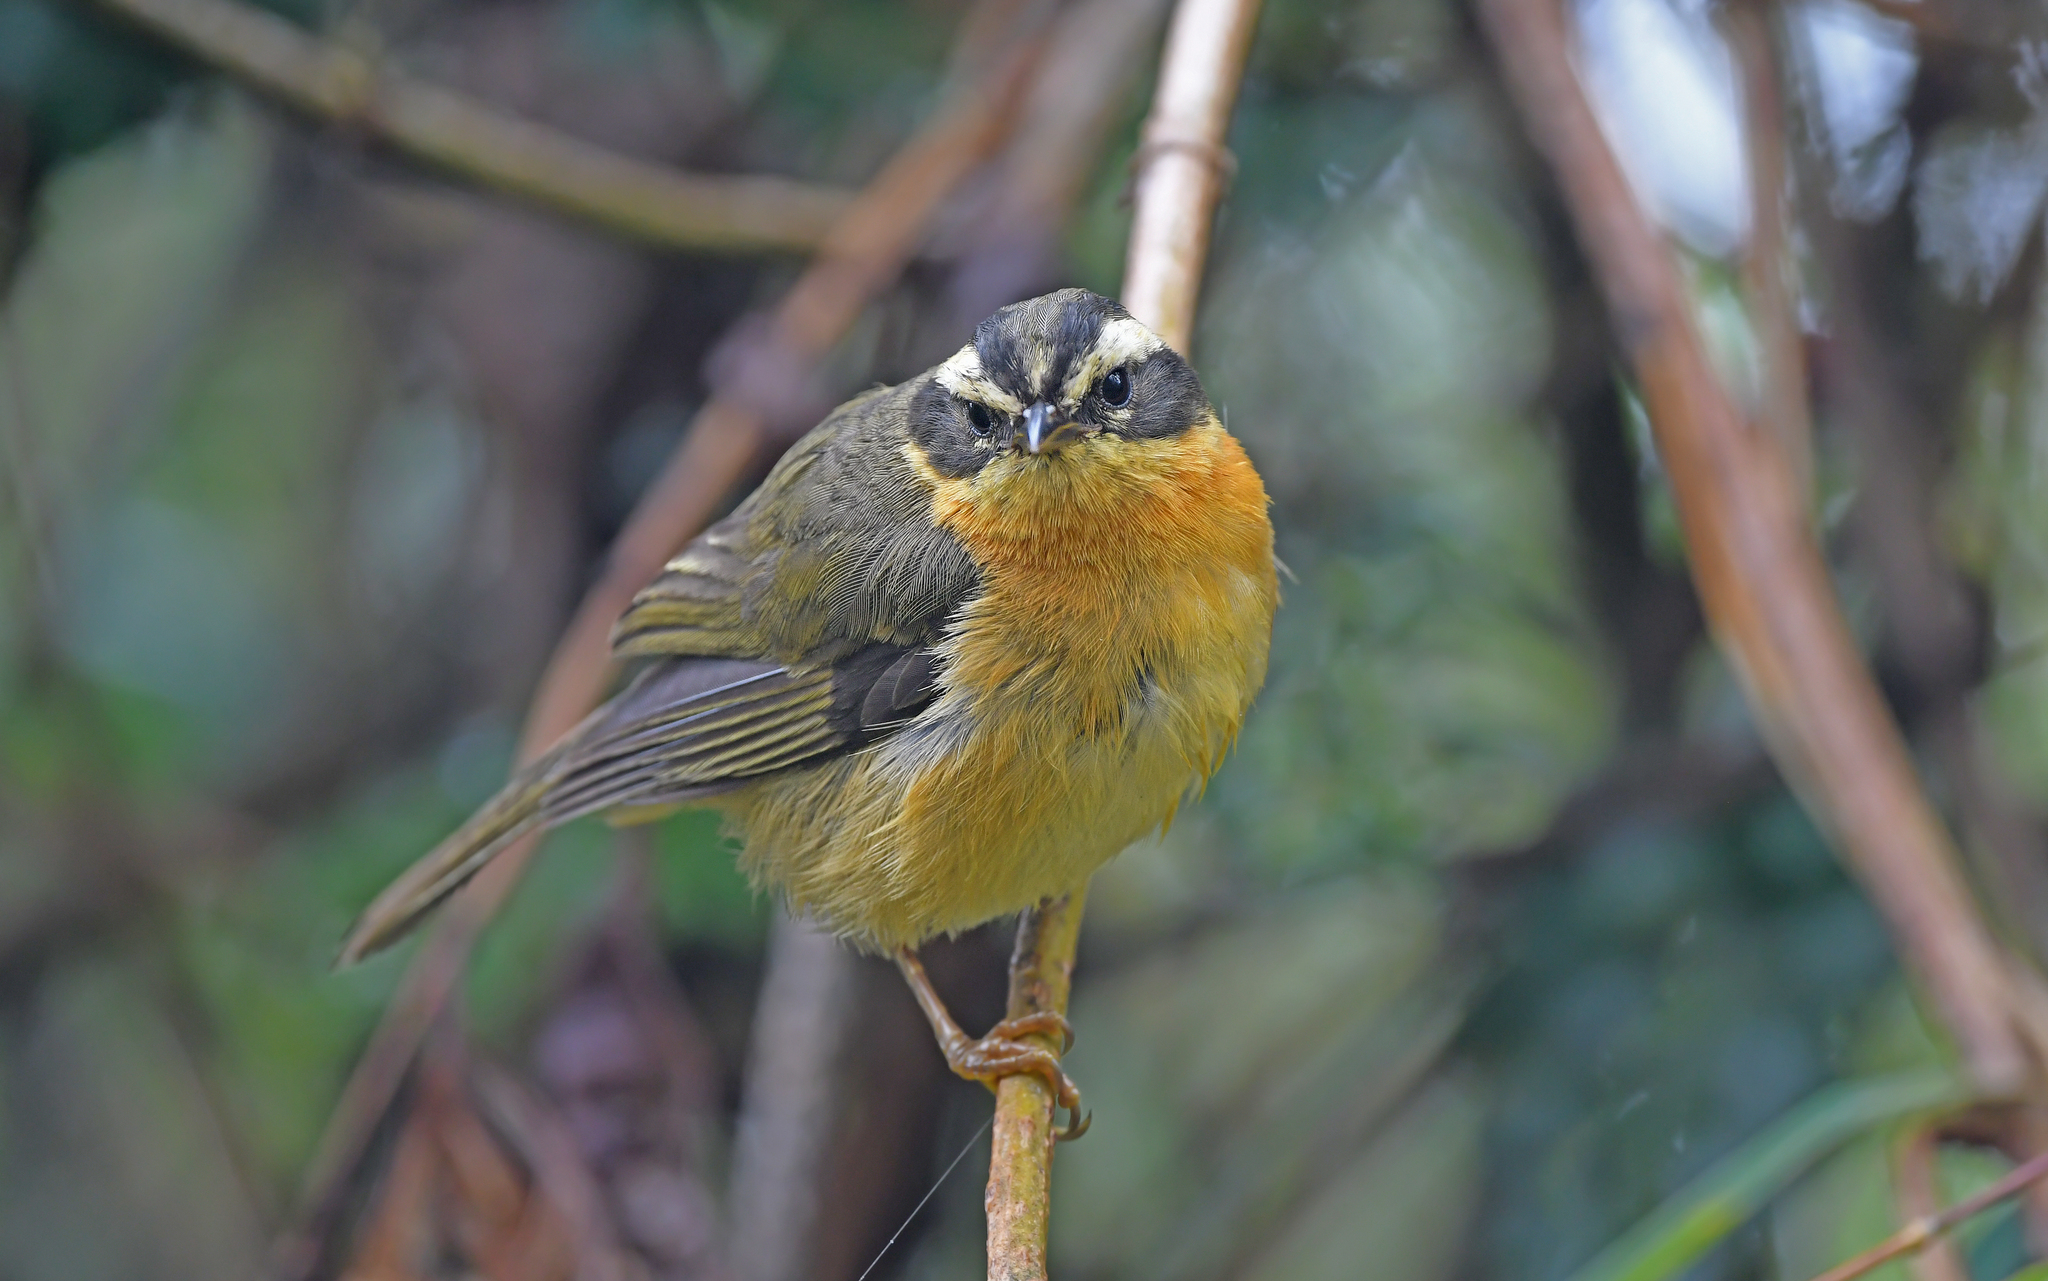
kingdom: Animalia
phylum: Chordata
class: Aves
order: Passeriformes
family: Thraupidae
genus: Microspingus
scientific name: Microspingus trifasciatus
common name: Three-striped hemispingus
